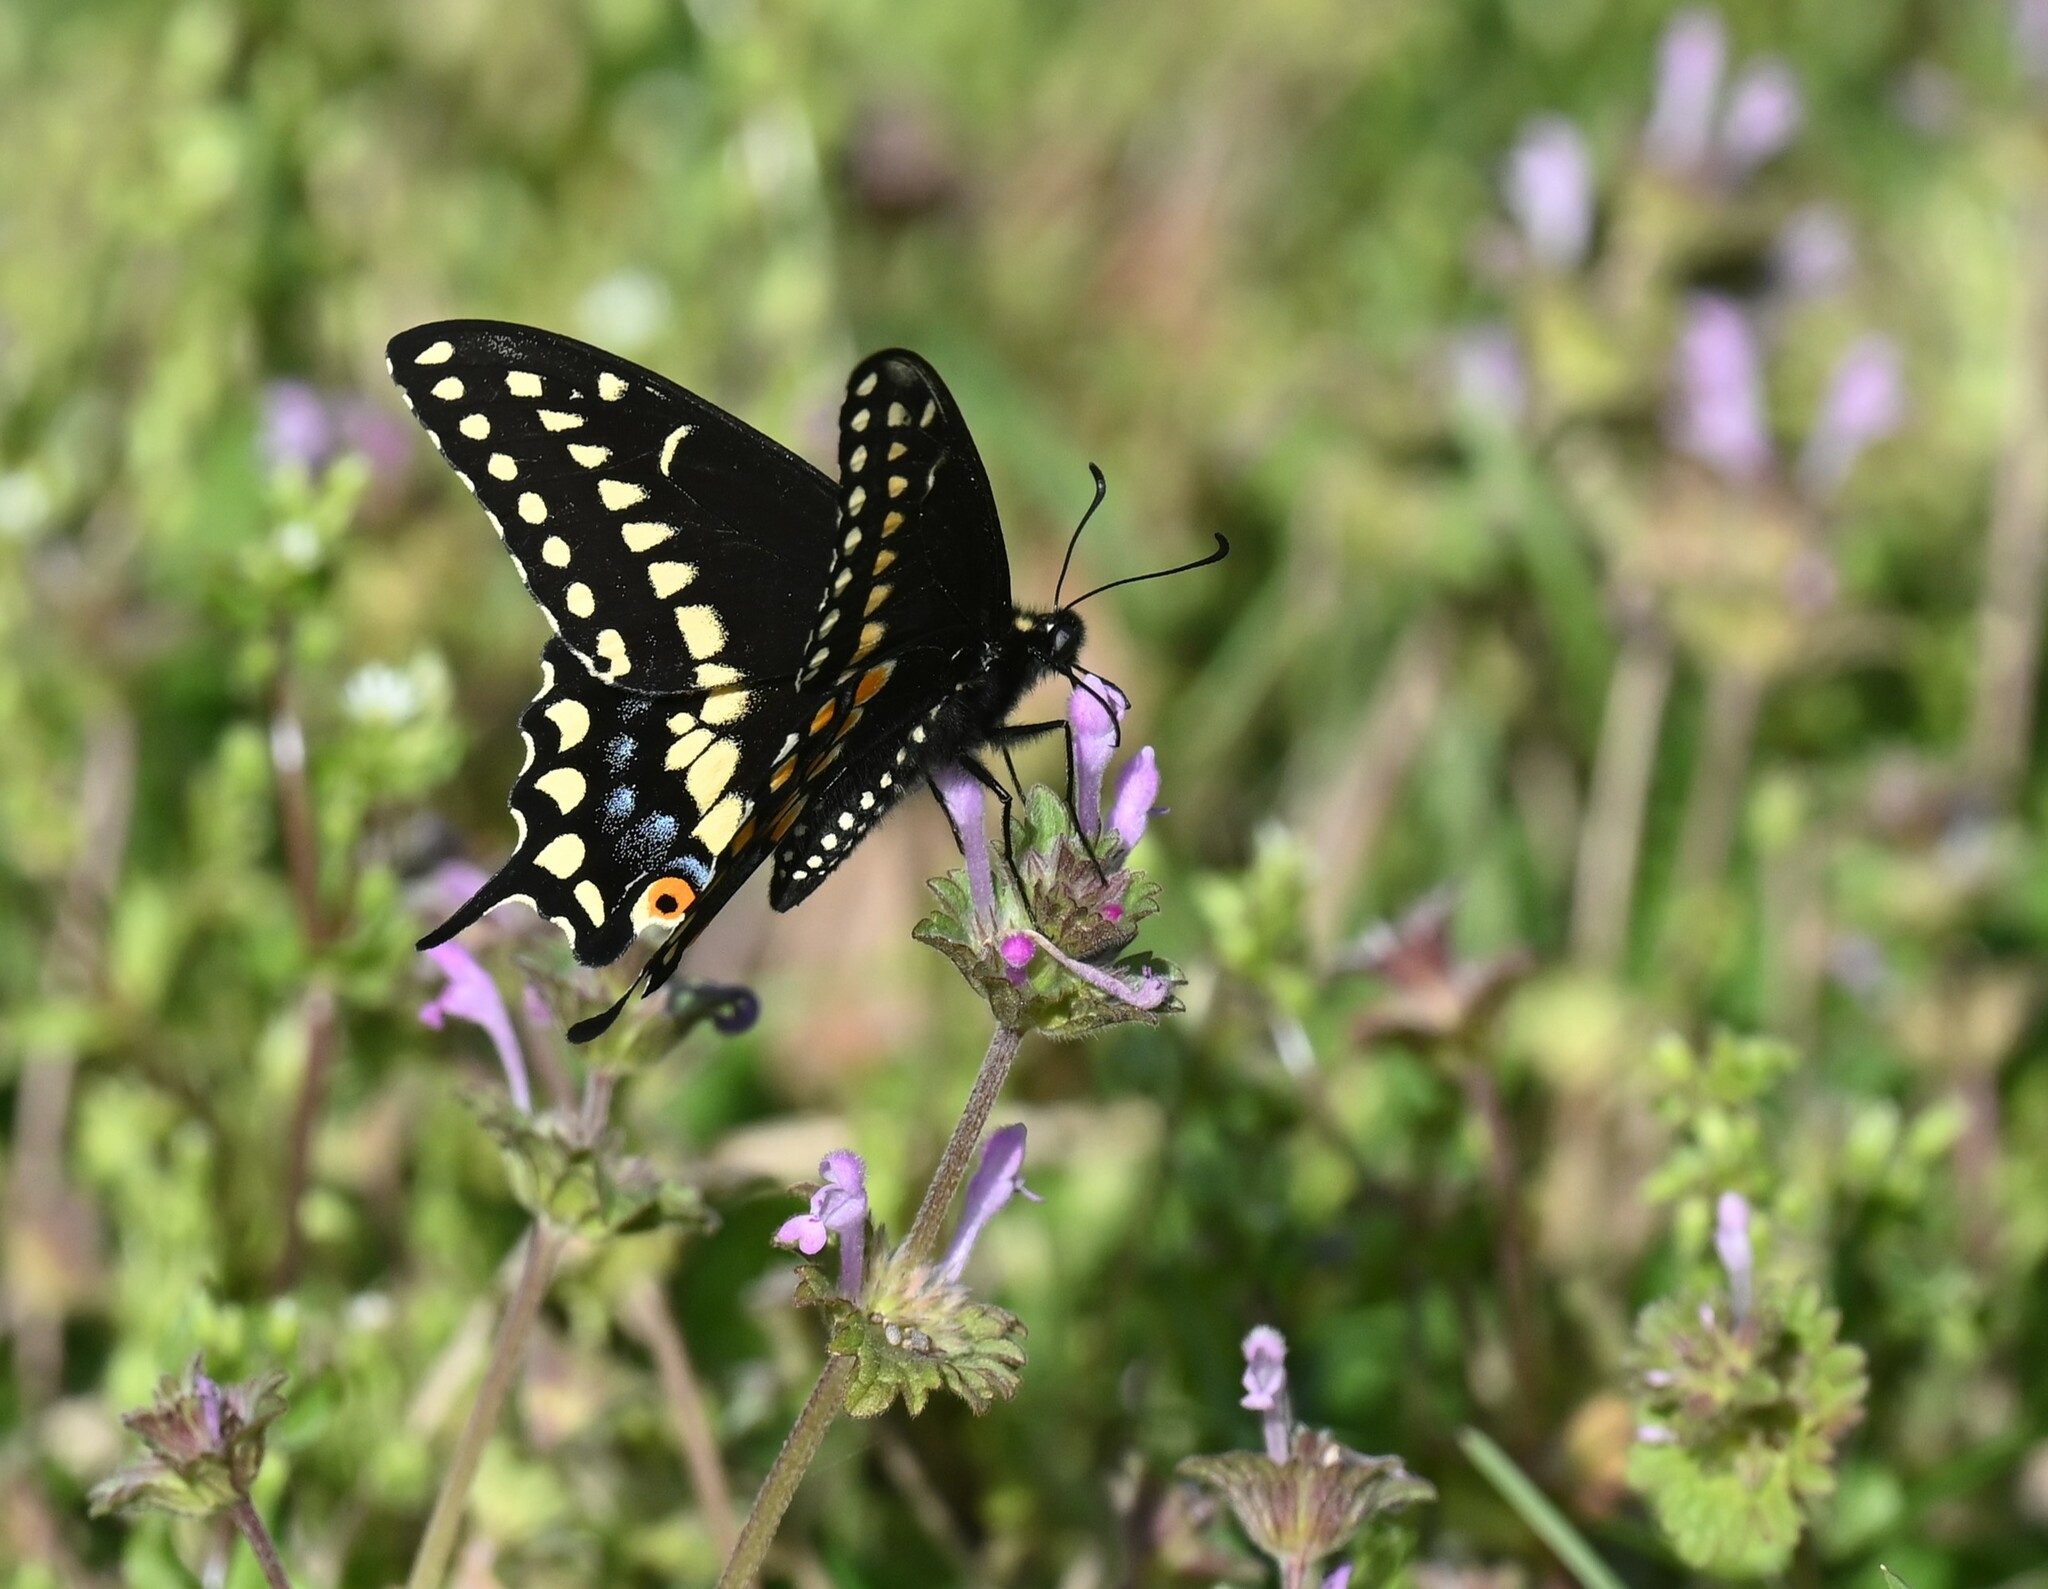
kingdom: Animalia
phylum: Arthropoda
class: Insecta
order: Lepidoptera
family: Papilionidae
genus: Papilio
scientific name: Papilio polyxenes
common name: Black swallowtail
